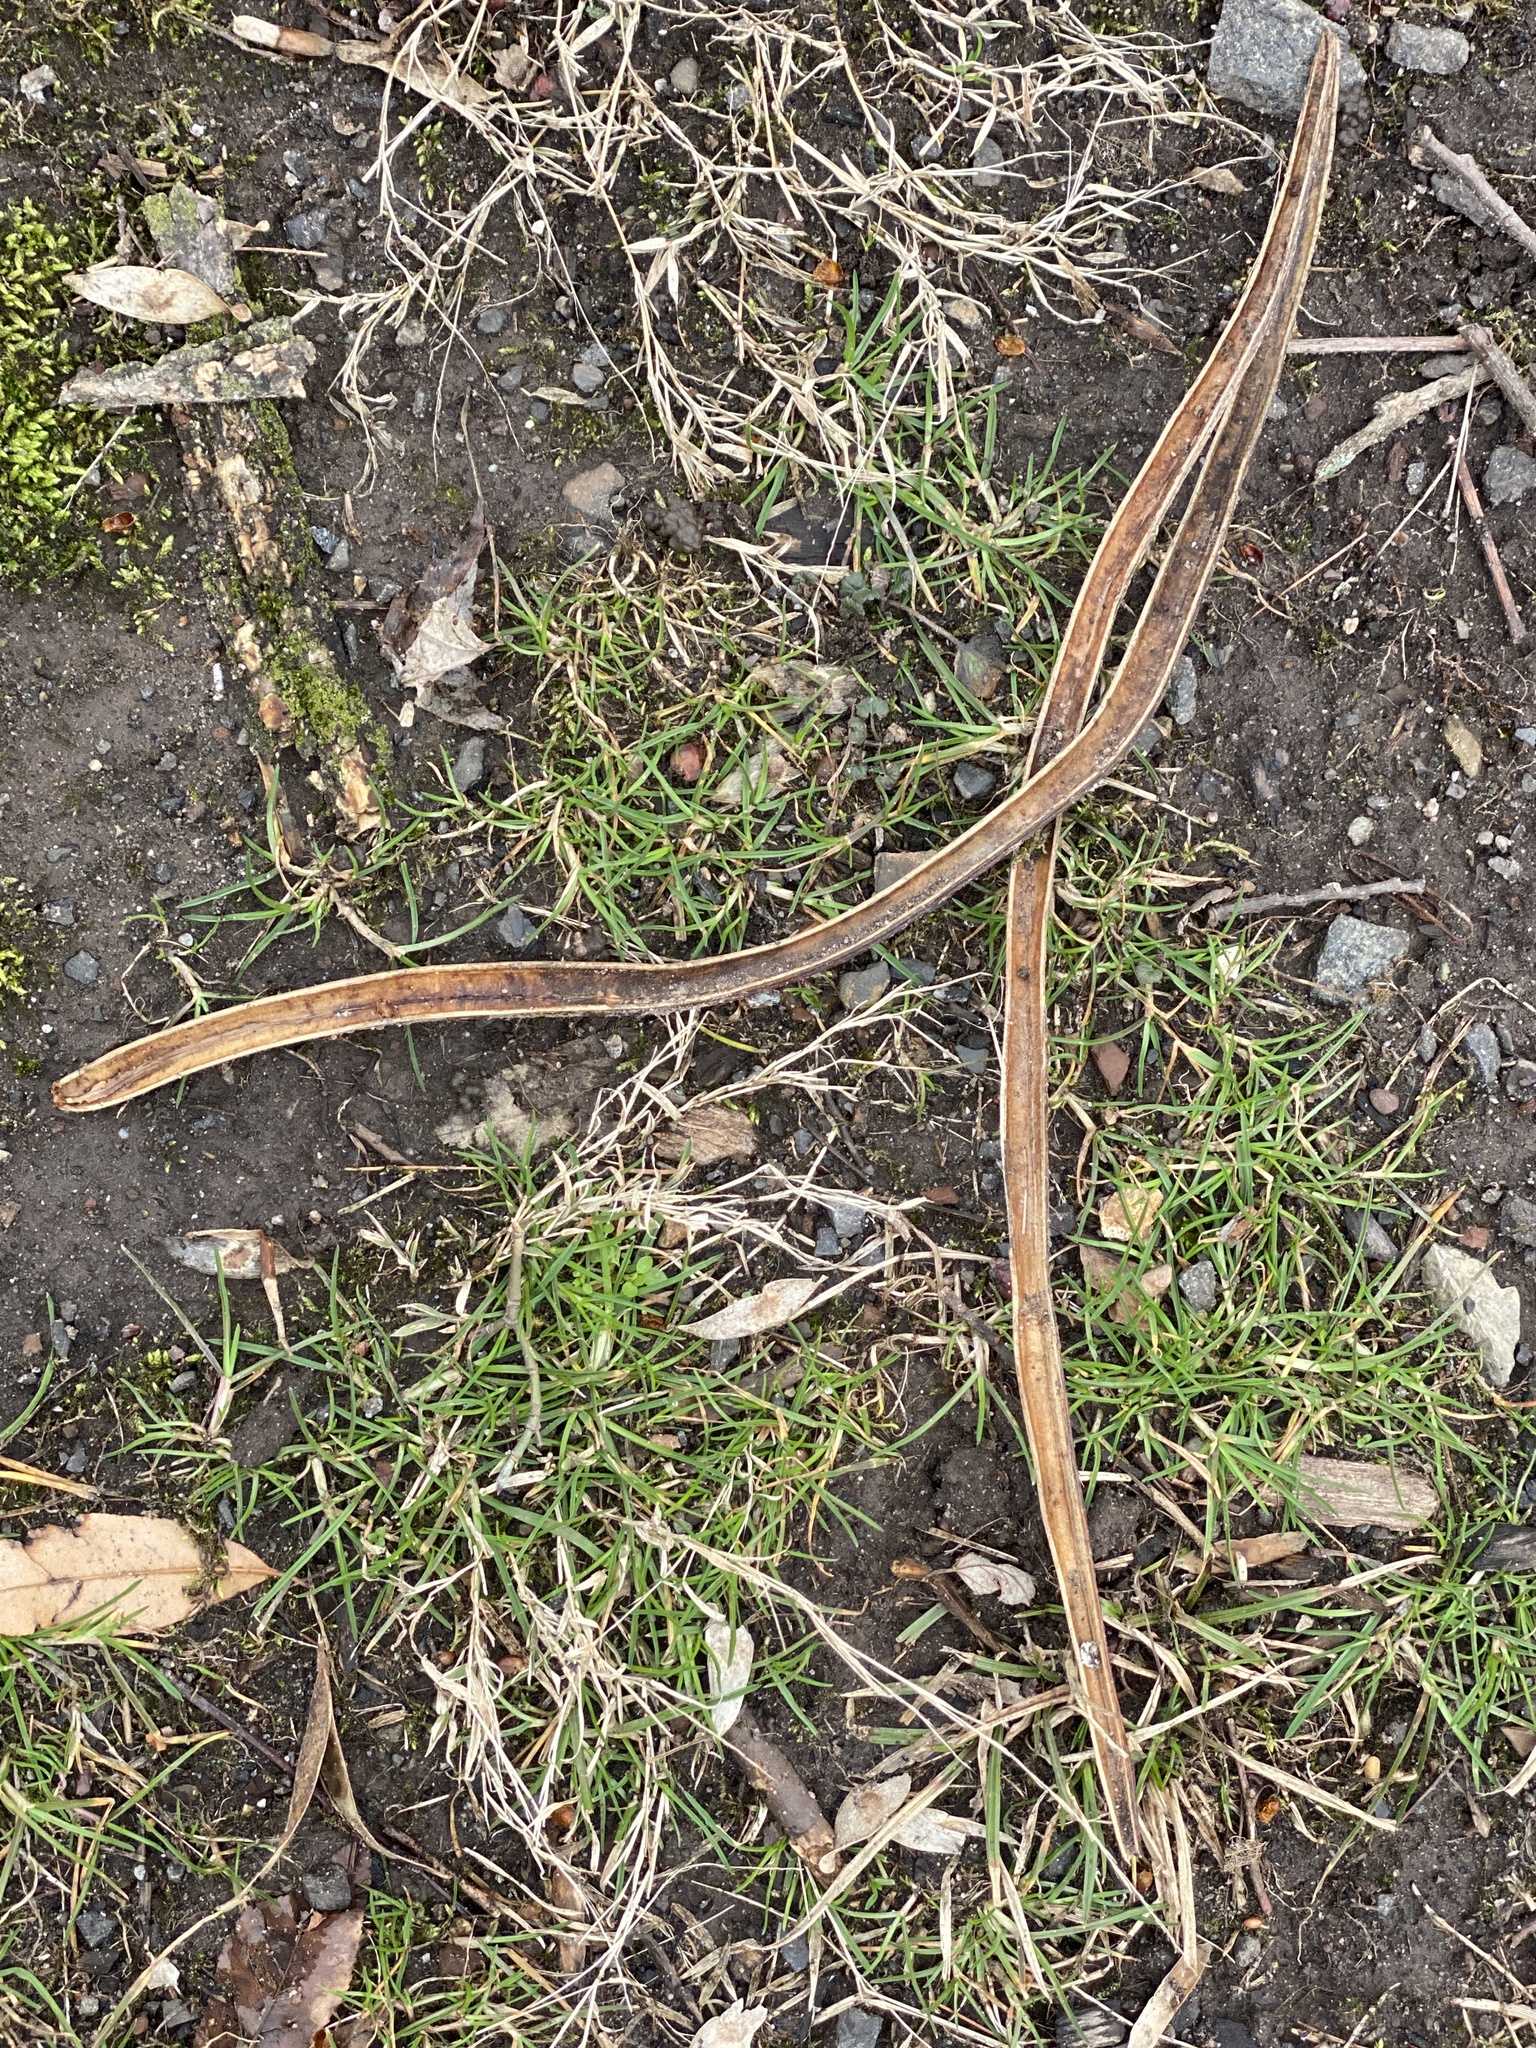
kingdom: Plantae
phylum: Tracheophyta
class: Magnoliopsida
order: Lamiales
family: Bignoniaceae
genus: Catalpa
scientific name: Catalpa
